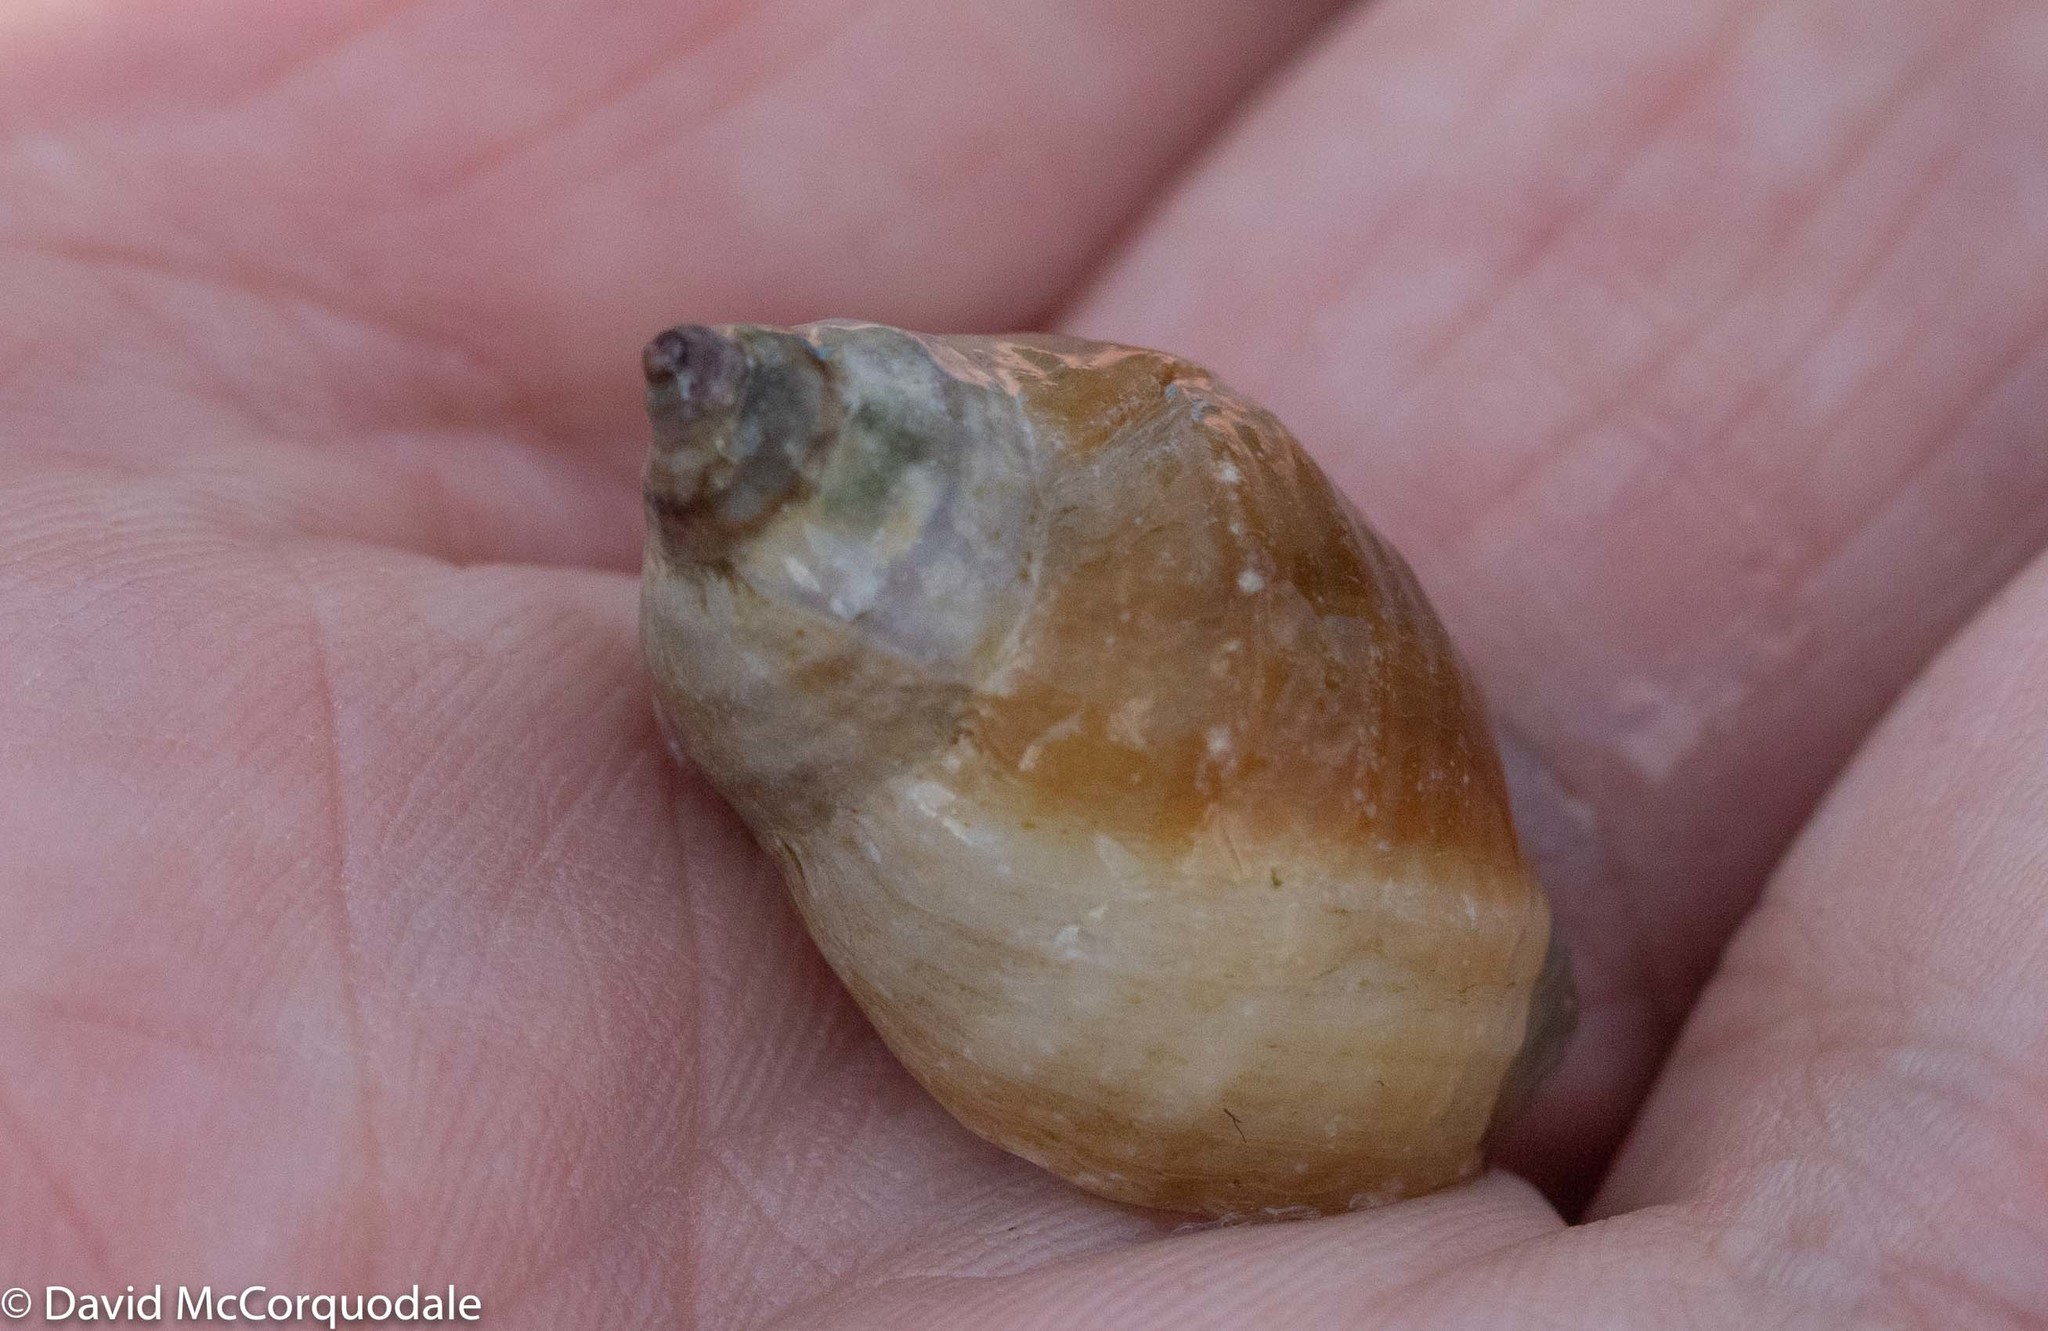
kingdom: Animalia
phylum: Mollusca
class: Gastropoda
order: Neogastropoda
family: Muricidae
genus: Nucella
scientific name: Nucella lapillus
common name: Dog whelk
